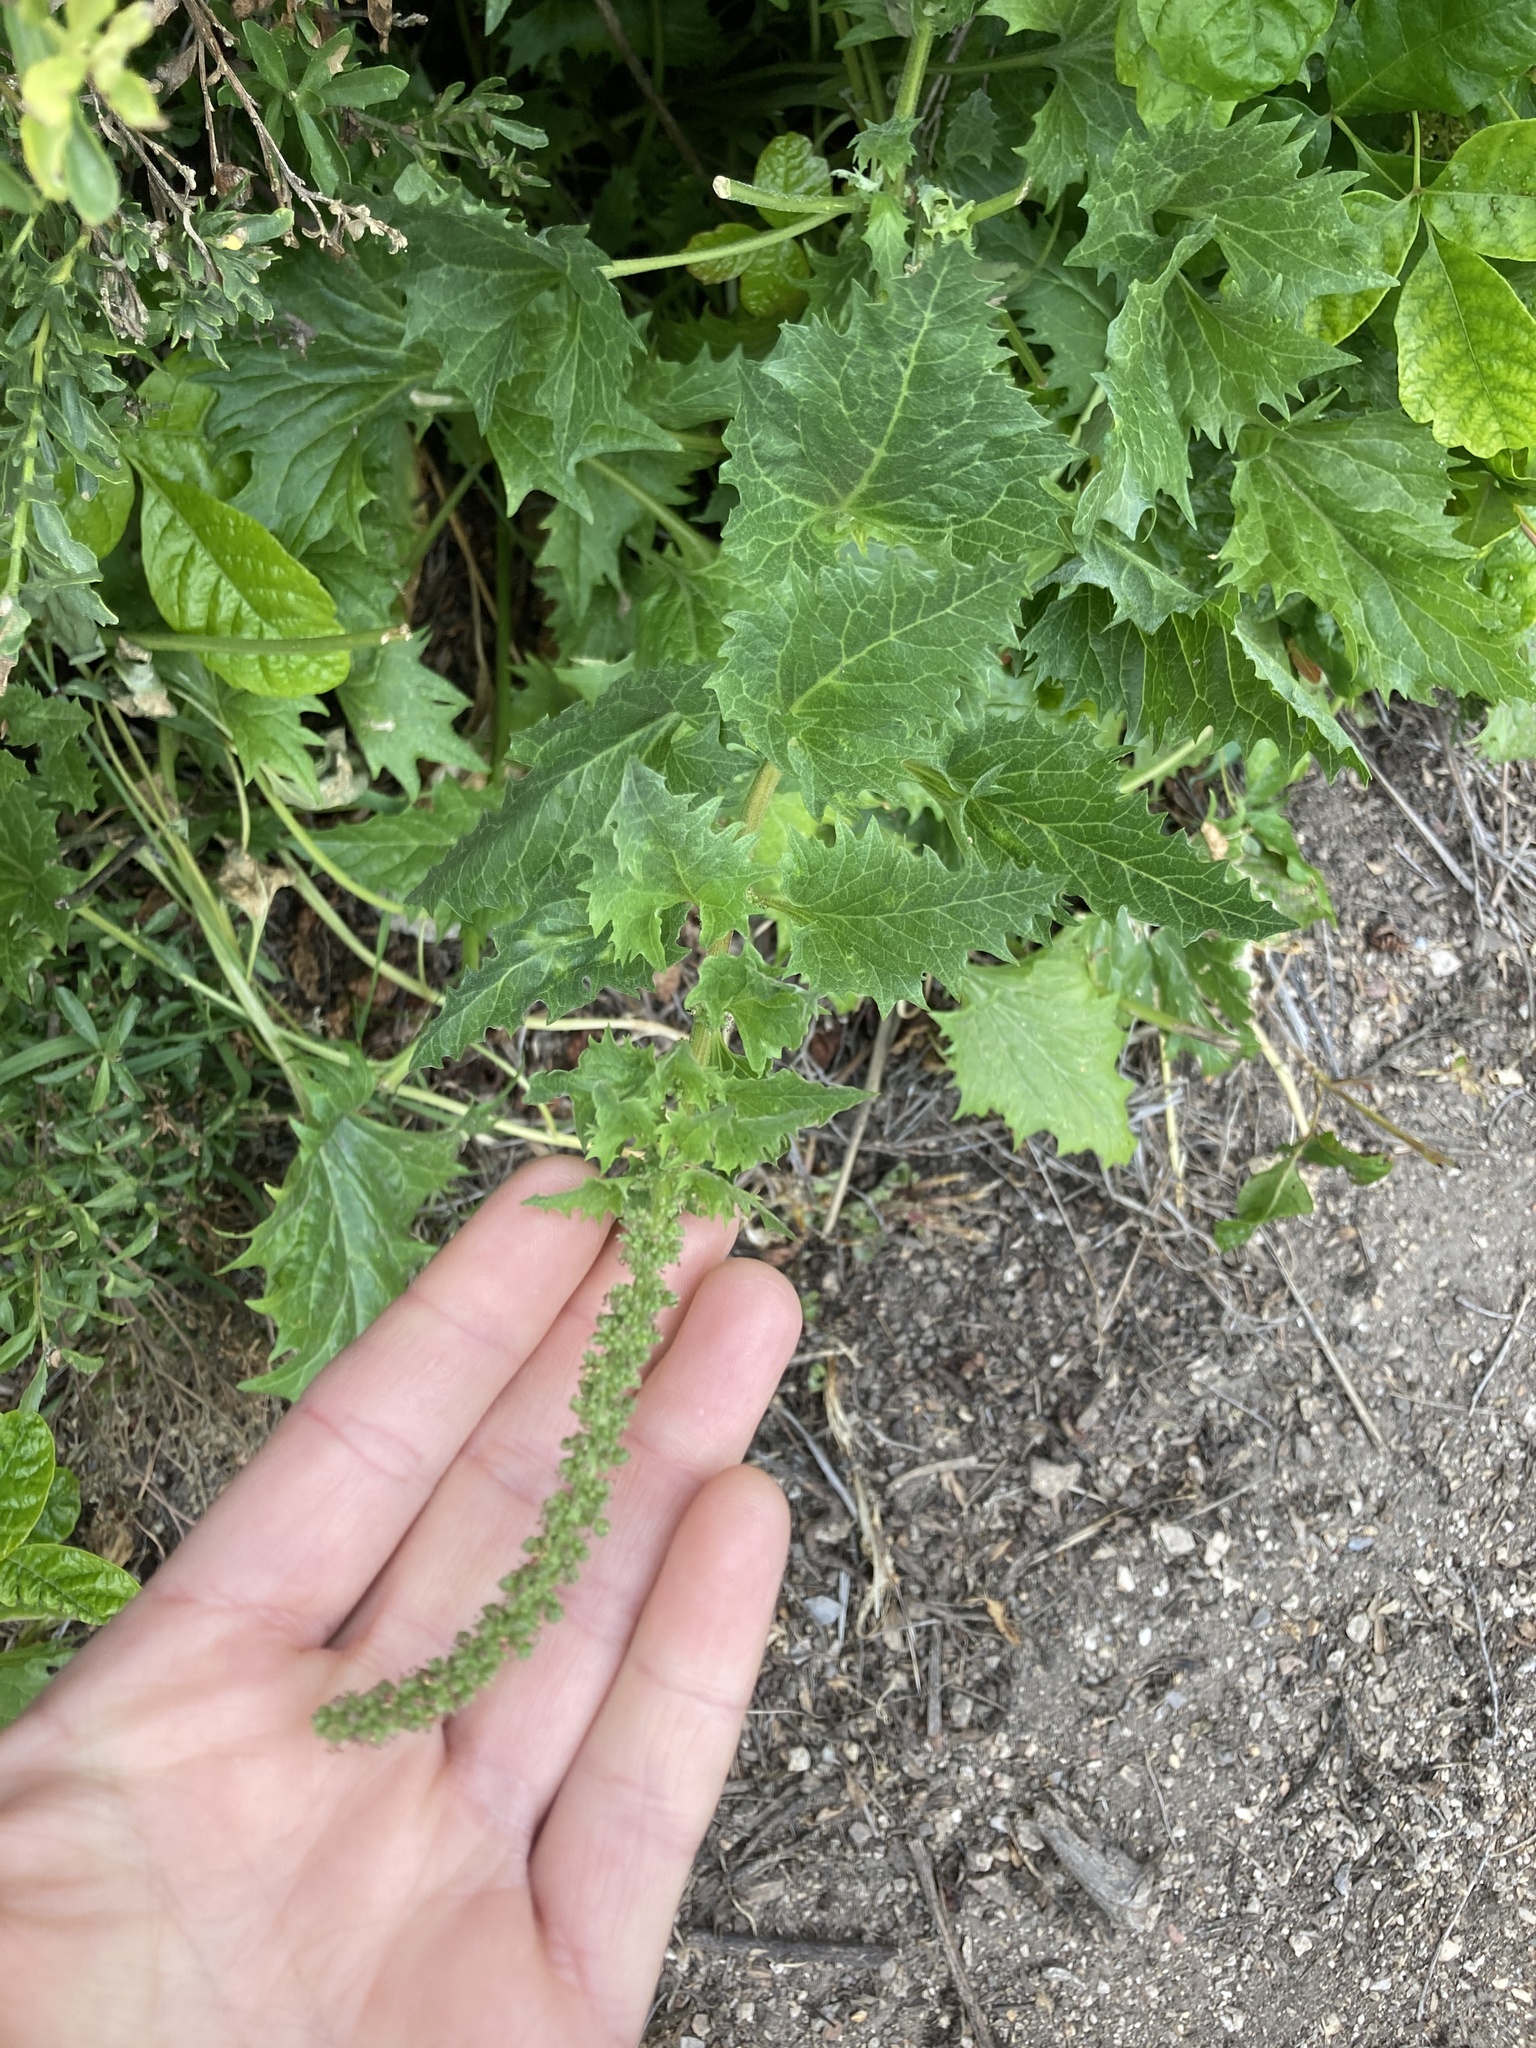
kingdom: Plantae
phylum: Tracheophyta
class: Magnoliopsida
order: Caryophyllales
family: Amaranthaceae
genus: Blitum
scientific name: Blitum californicum
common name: California goosefoot
